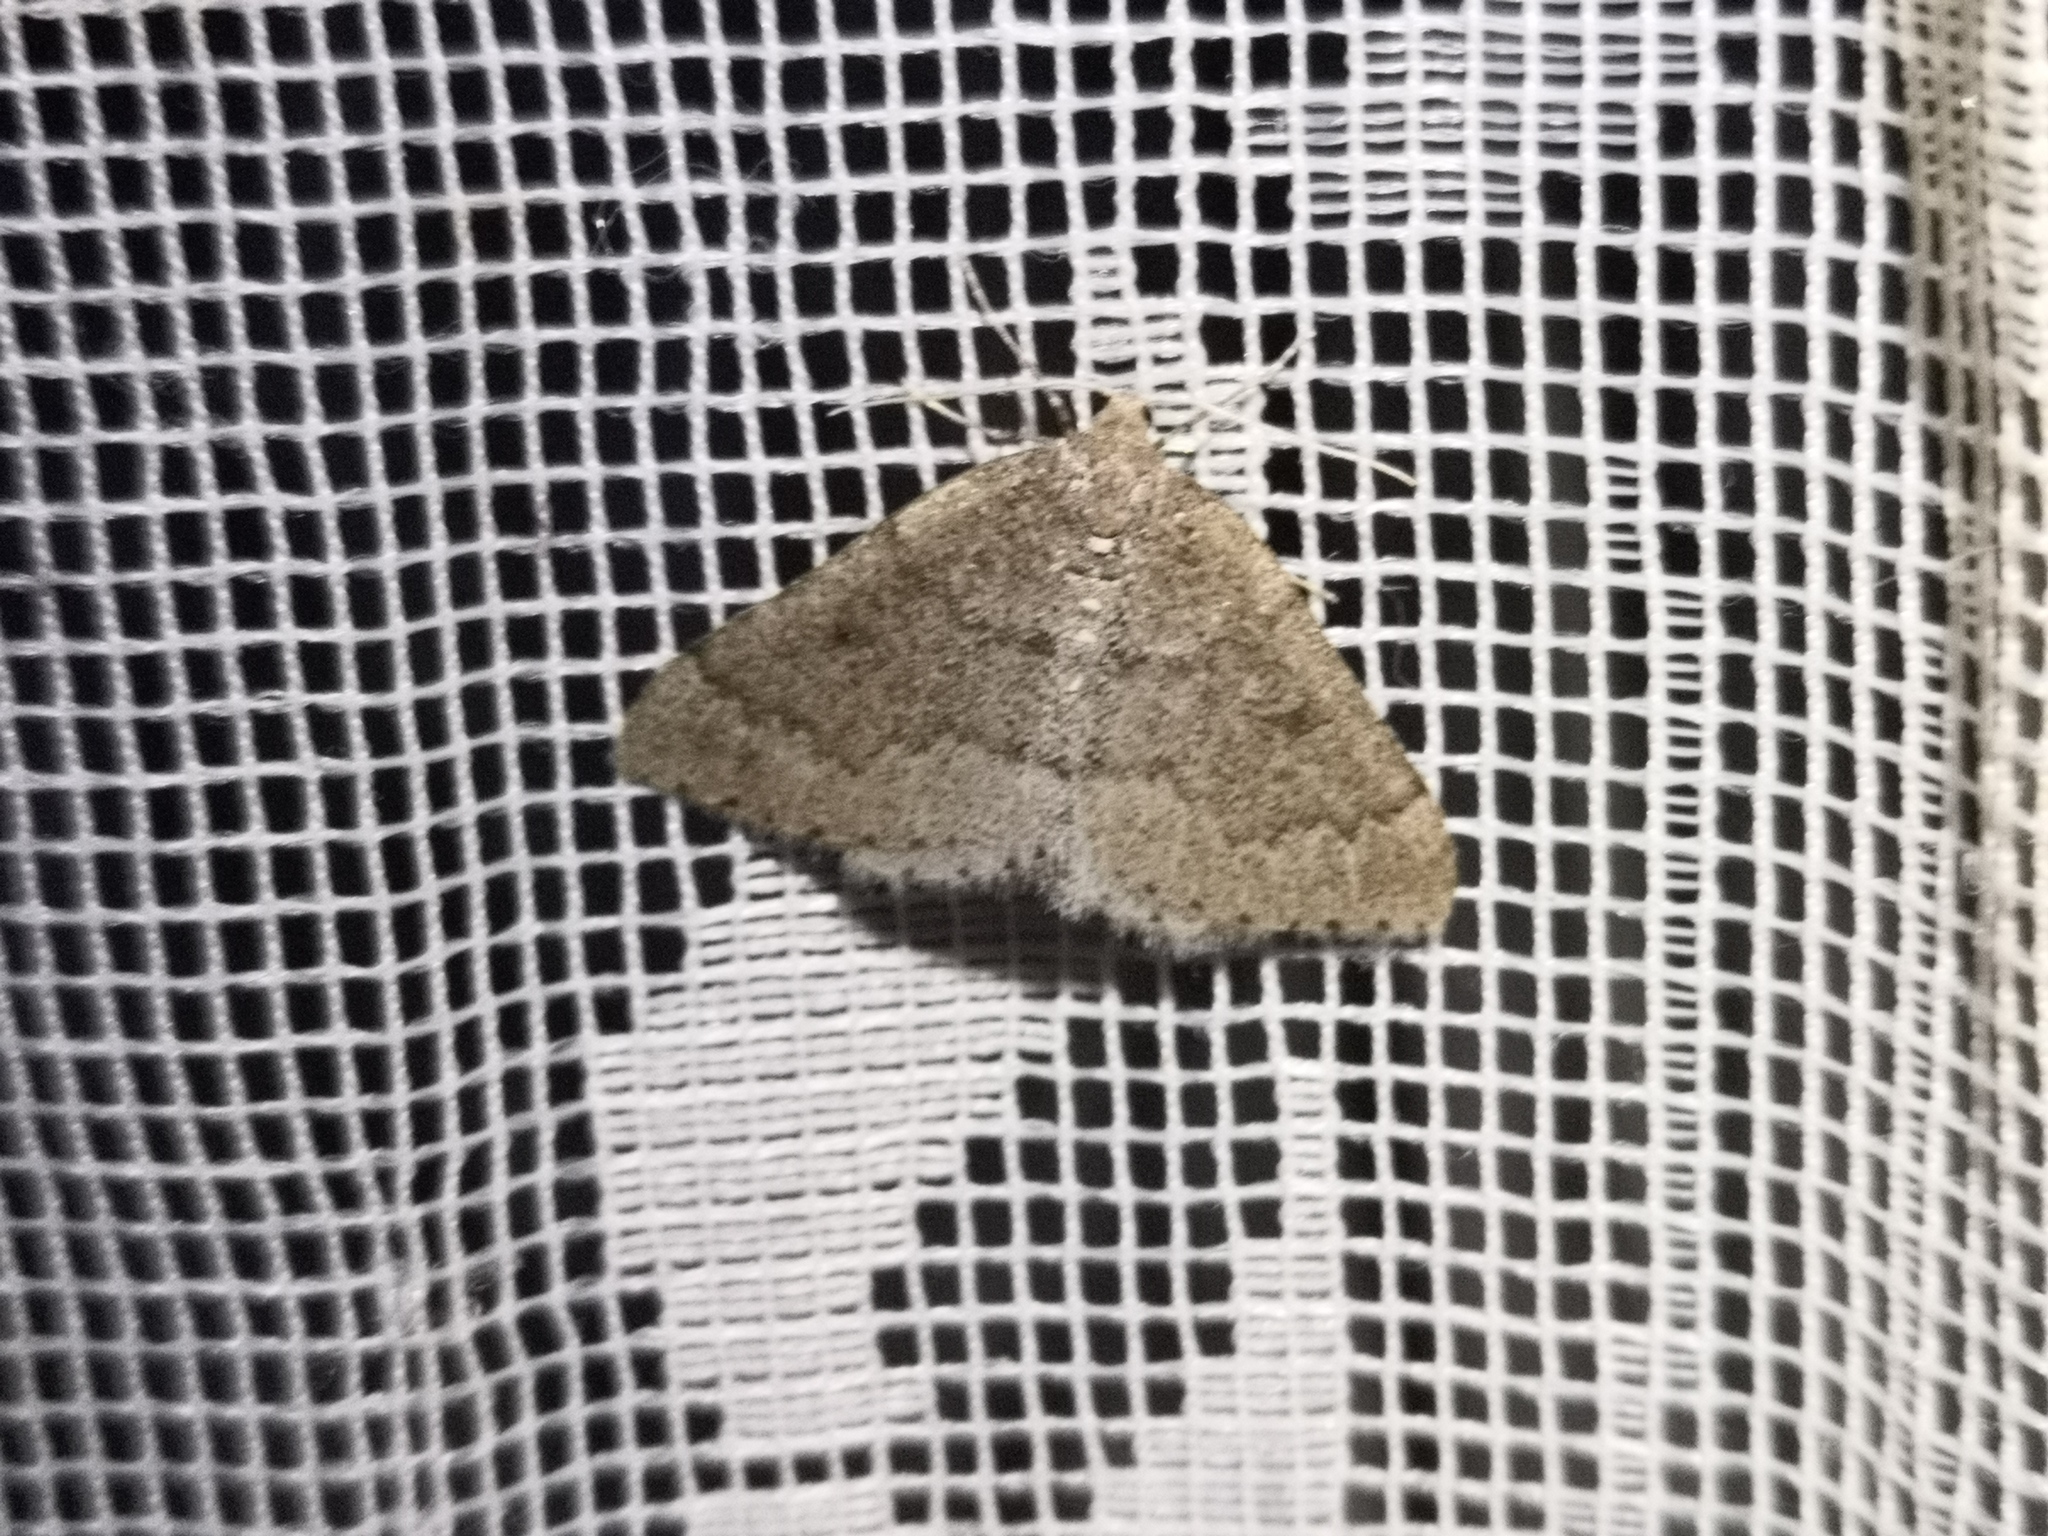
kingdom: Animalia
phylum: Arthropoda
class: Insecta
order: Lepidoptera
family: Geometridae
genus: Aleucis
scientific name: Aleucis distinctata
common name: Sloe carpet
